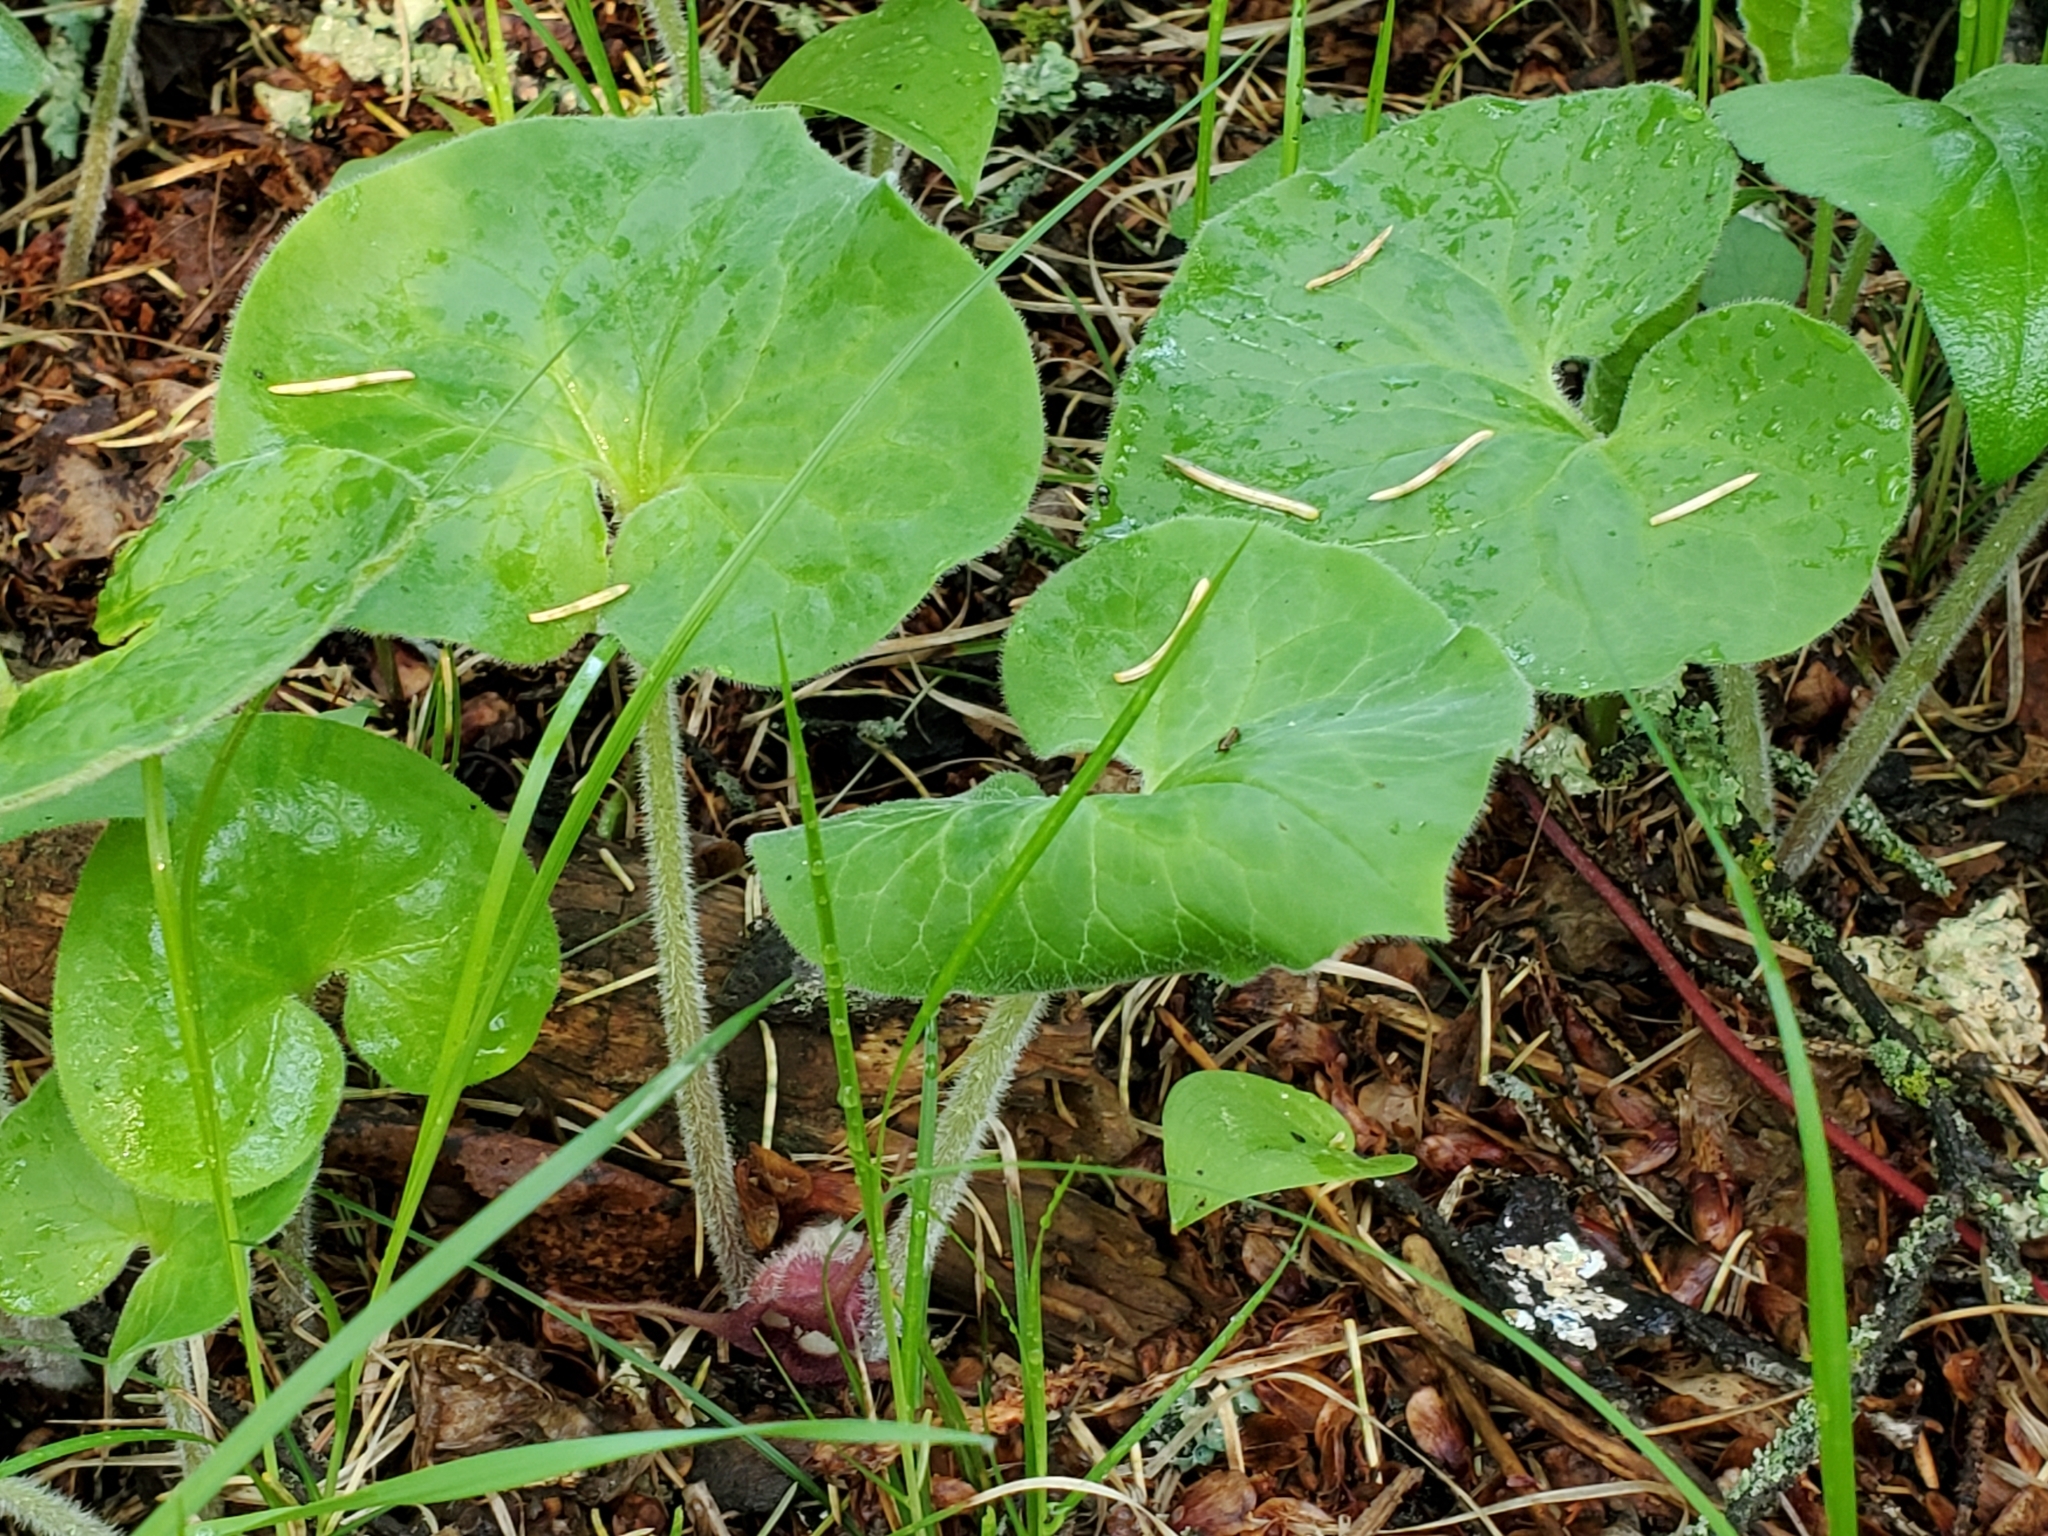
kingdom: Plantae
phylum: Tracheophyta
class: Magnoliopsida
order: Piperales
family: Aristolochiaceae
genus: Asarum
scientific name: Asarum canadense
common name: Wild ginger
